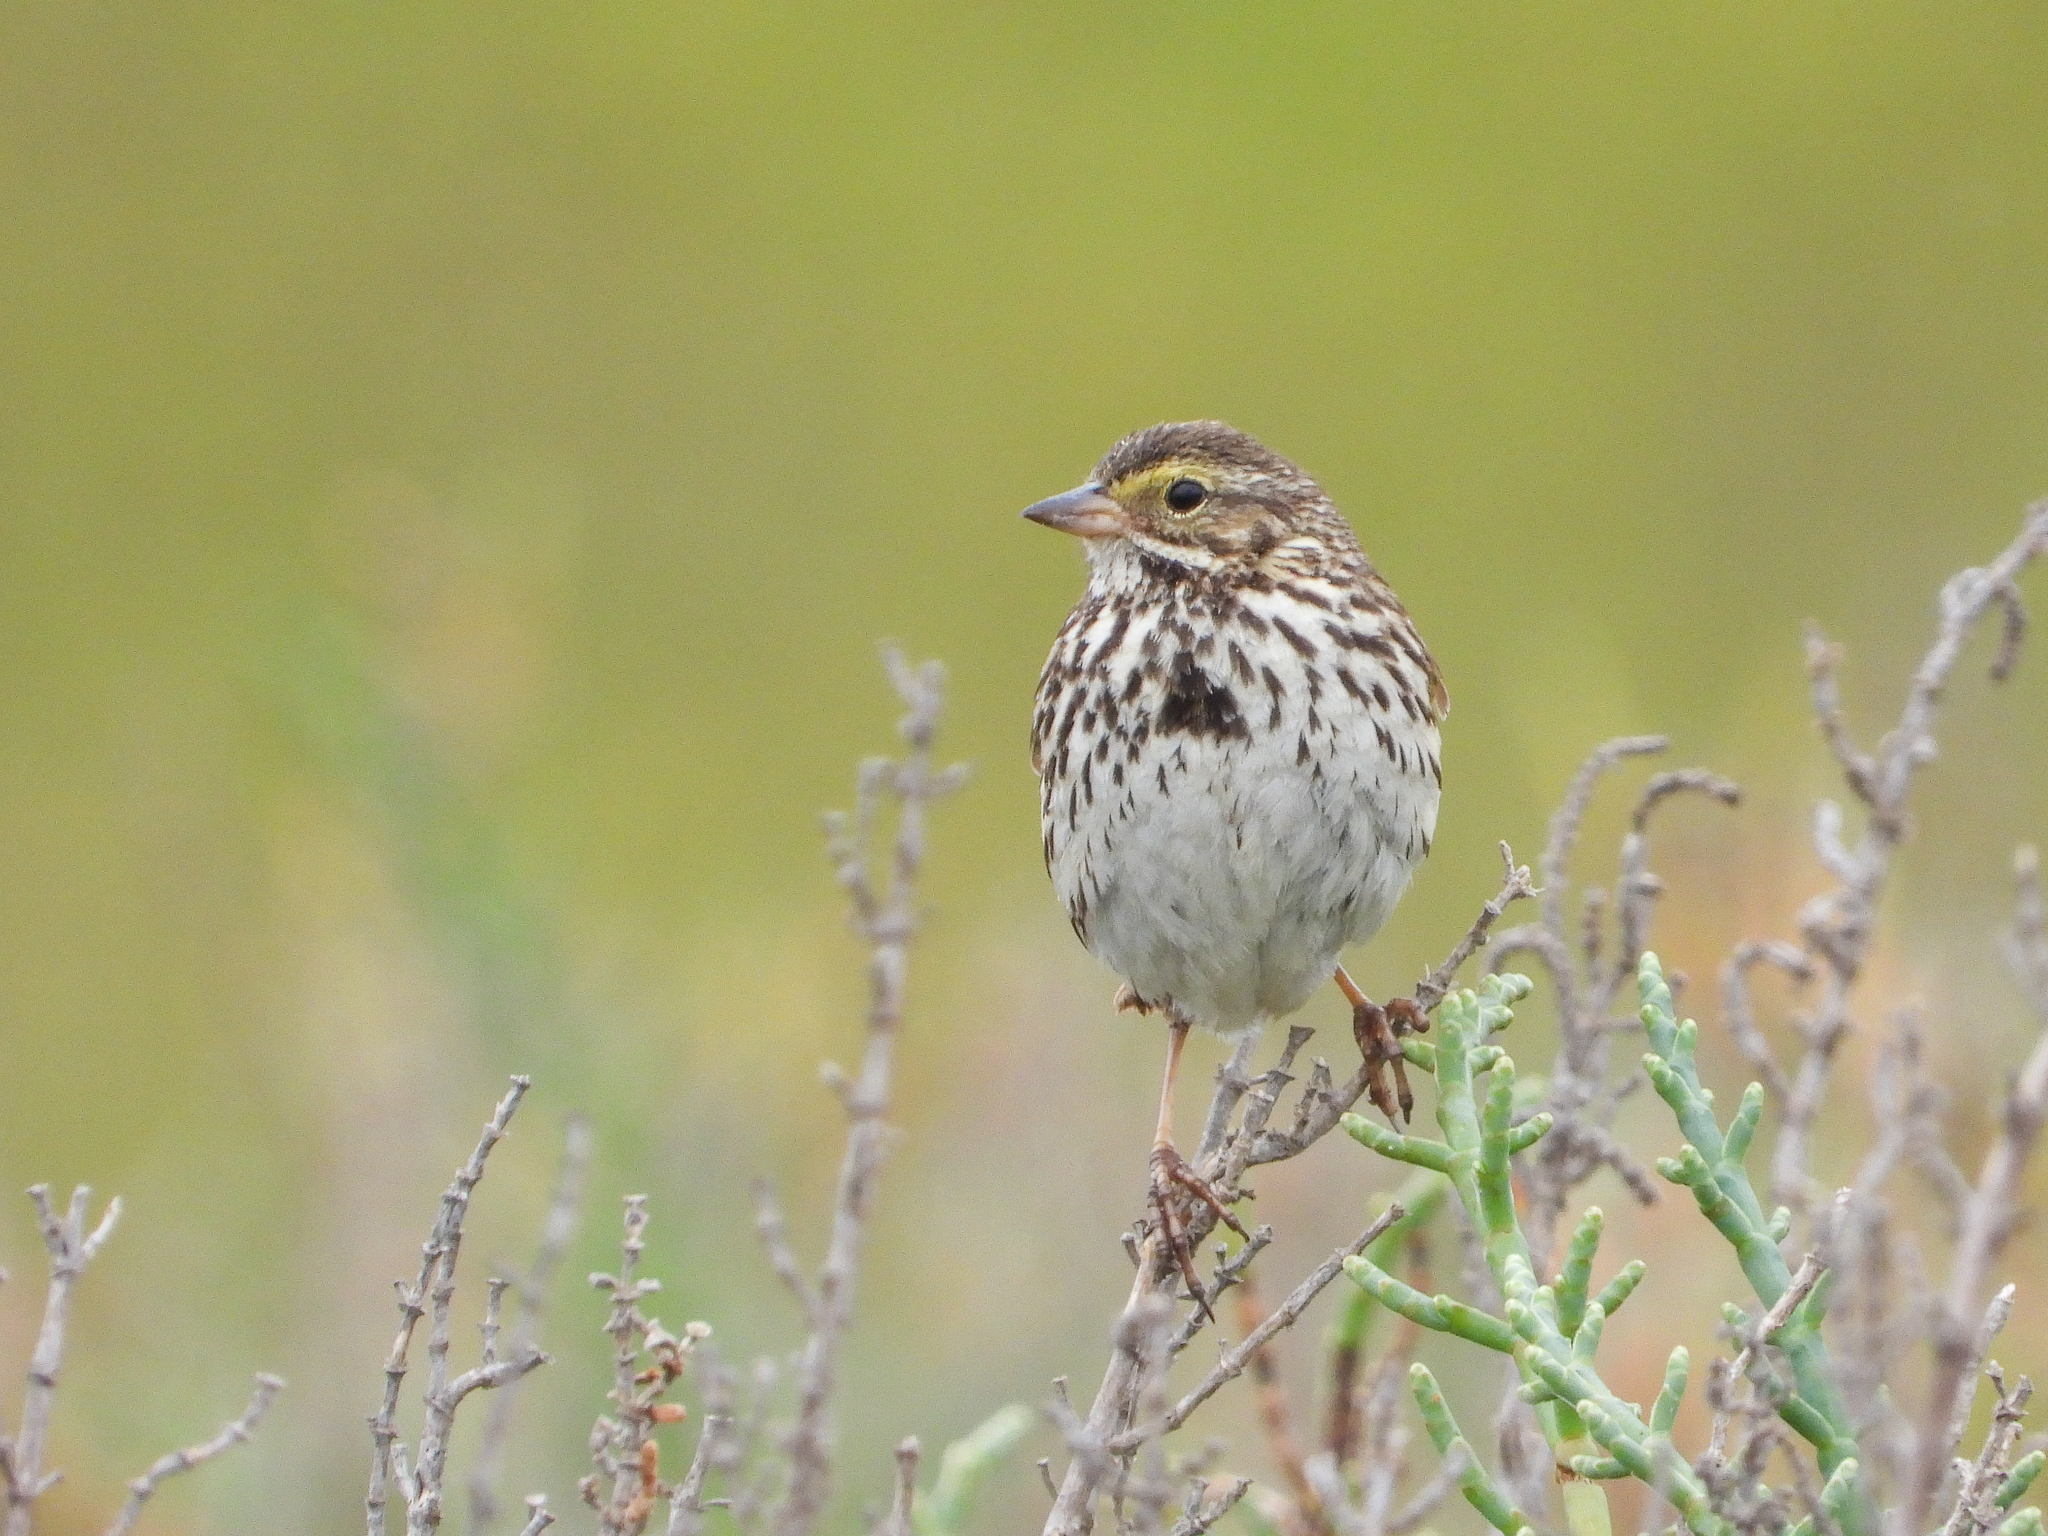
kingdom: Animalia
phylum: Chordata
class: Aves
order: Passeriformes
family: Passerellidae
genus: Passerculus
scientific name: Passerculus sandwichensis
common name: Savannah sparrow
